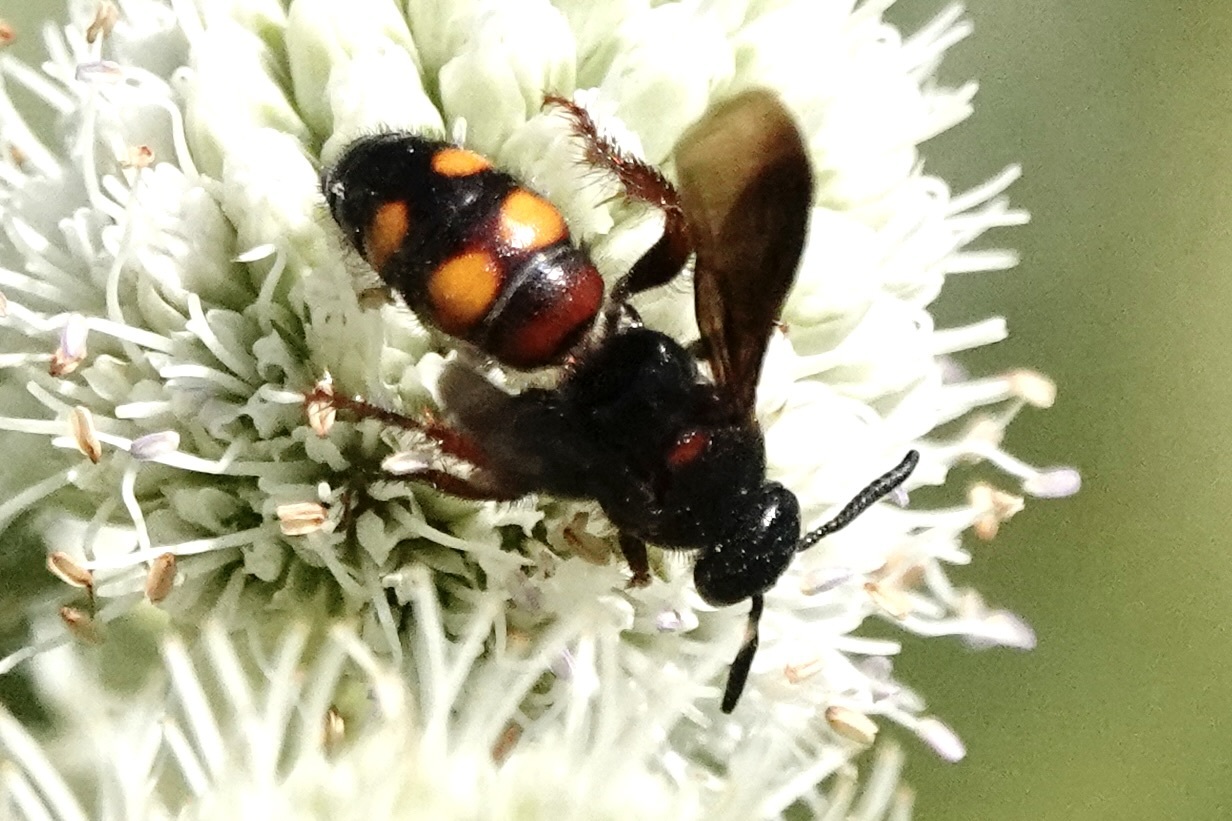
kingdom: Animalia
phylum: Arthropoda
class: Insecta
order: Hymenoptera
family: Scoliidae
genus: Scolia
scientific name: Scolia nobilitata
